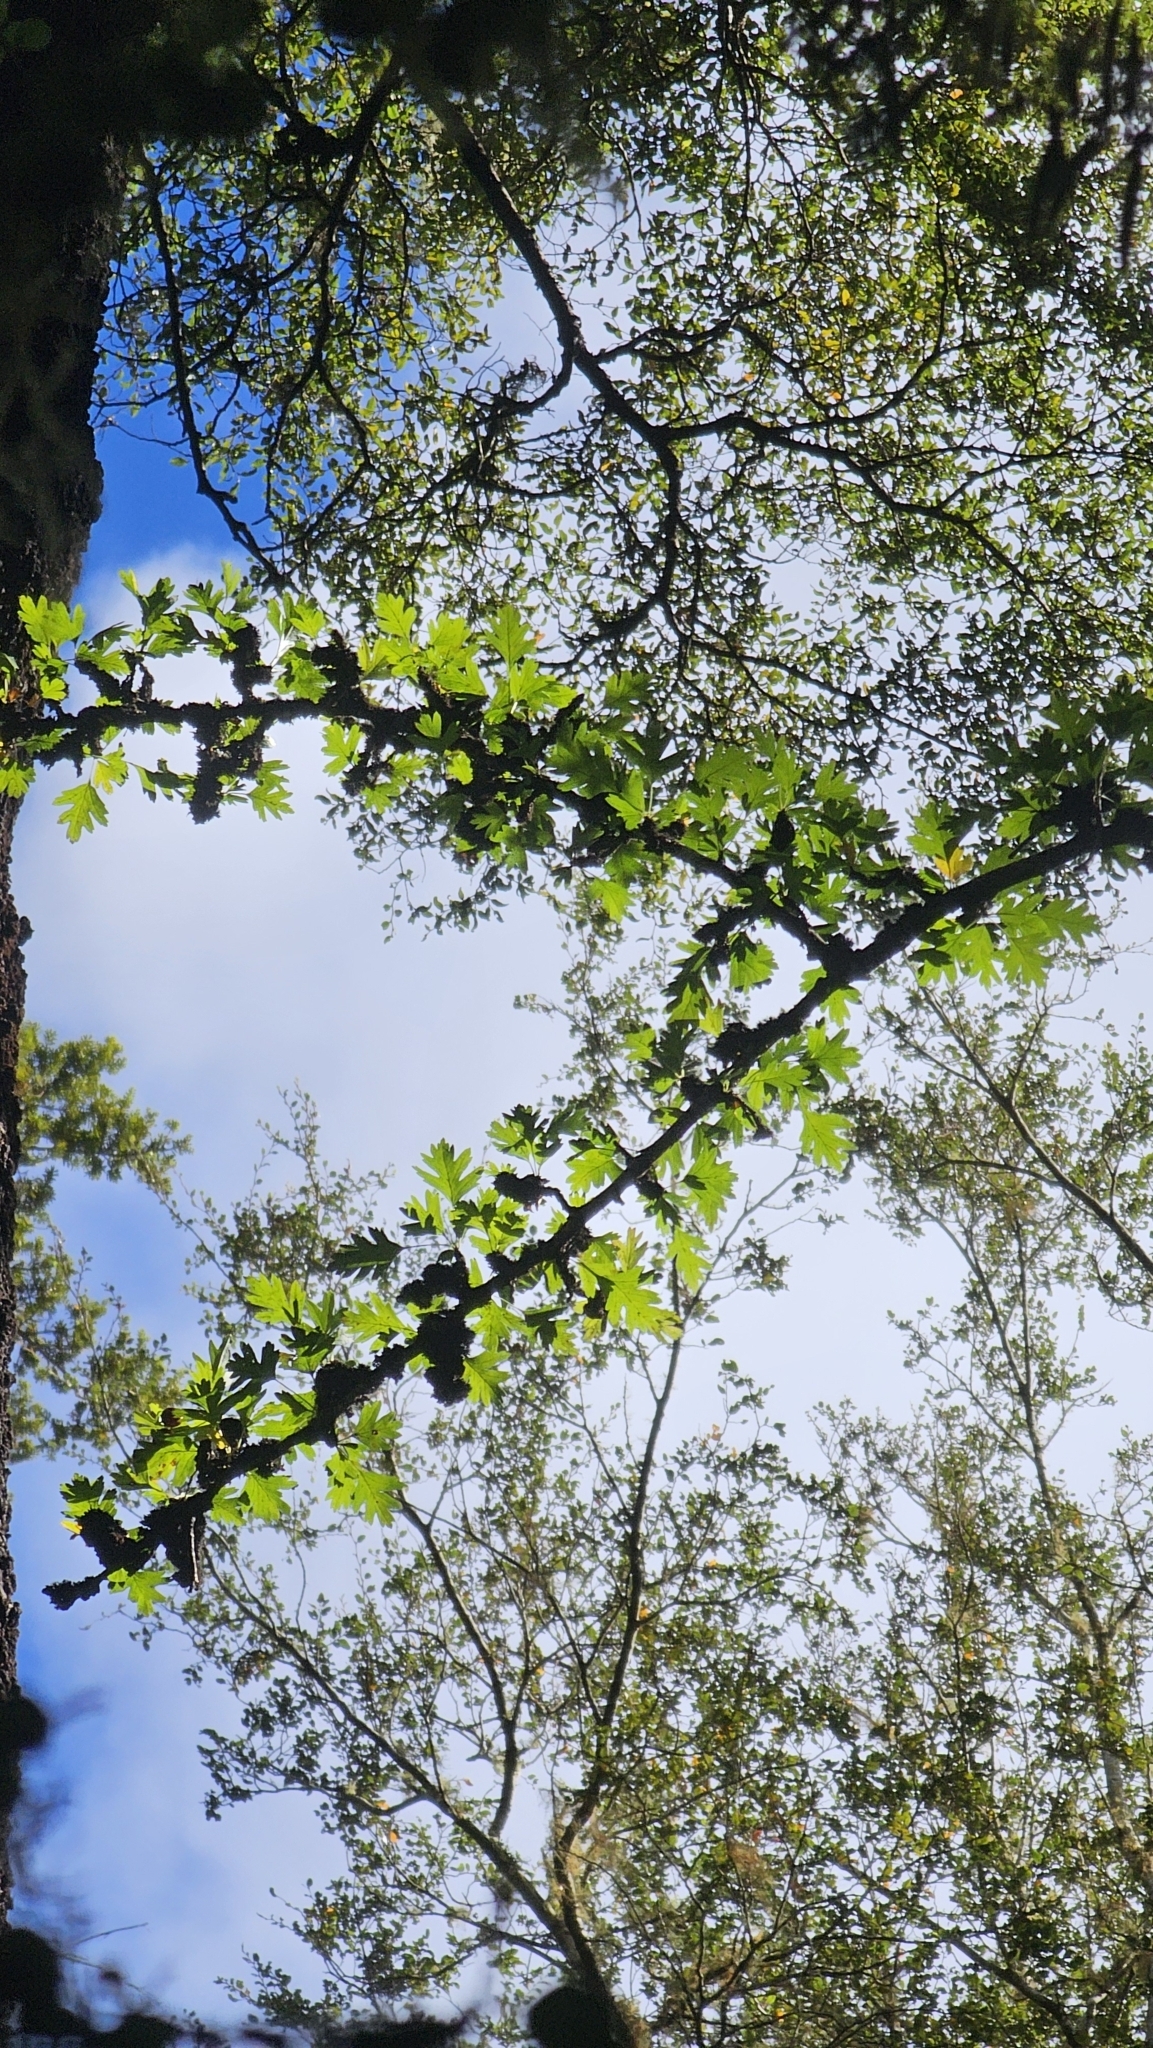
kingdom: Plantae
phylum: Tracheophyta
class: Magnoliopsida
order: Rosales
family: Rosaceae
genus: Crataegus
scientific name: Crataegus monogyna
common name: Hawthorn
